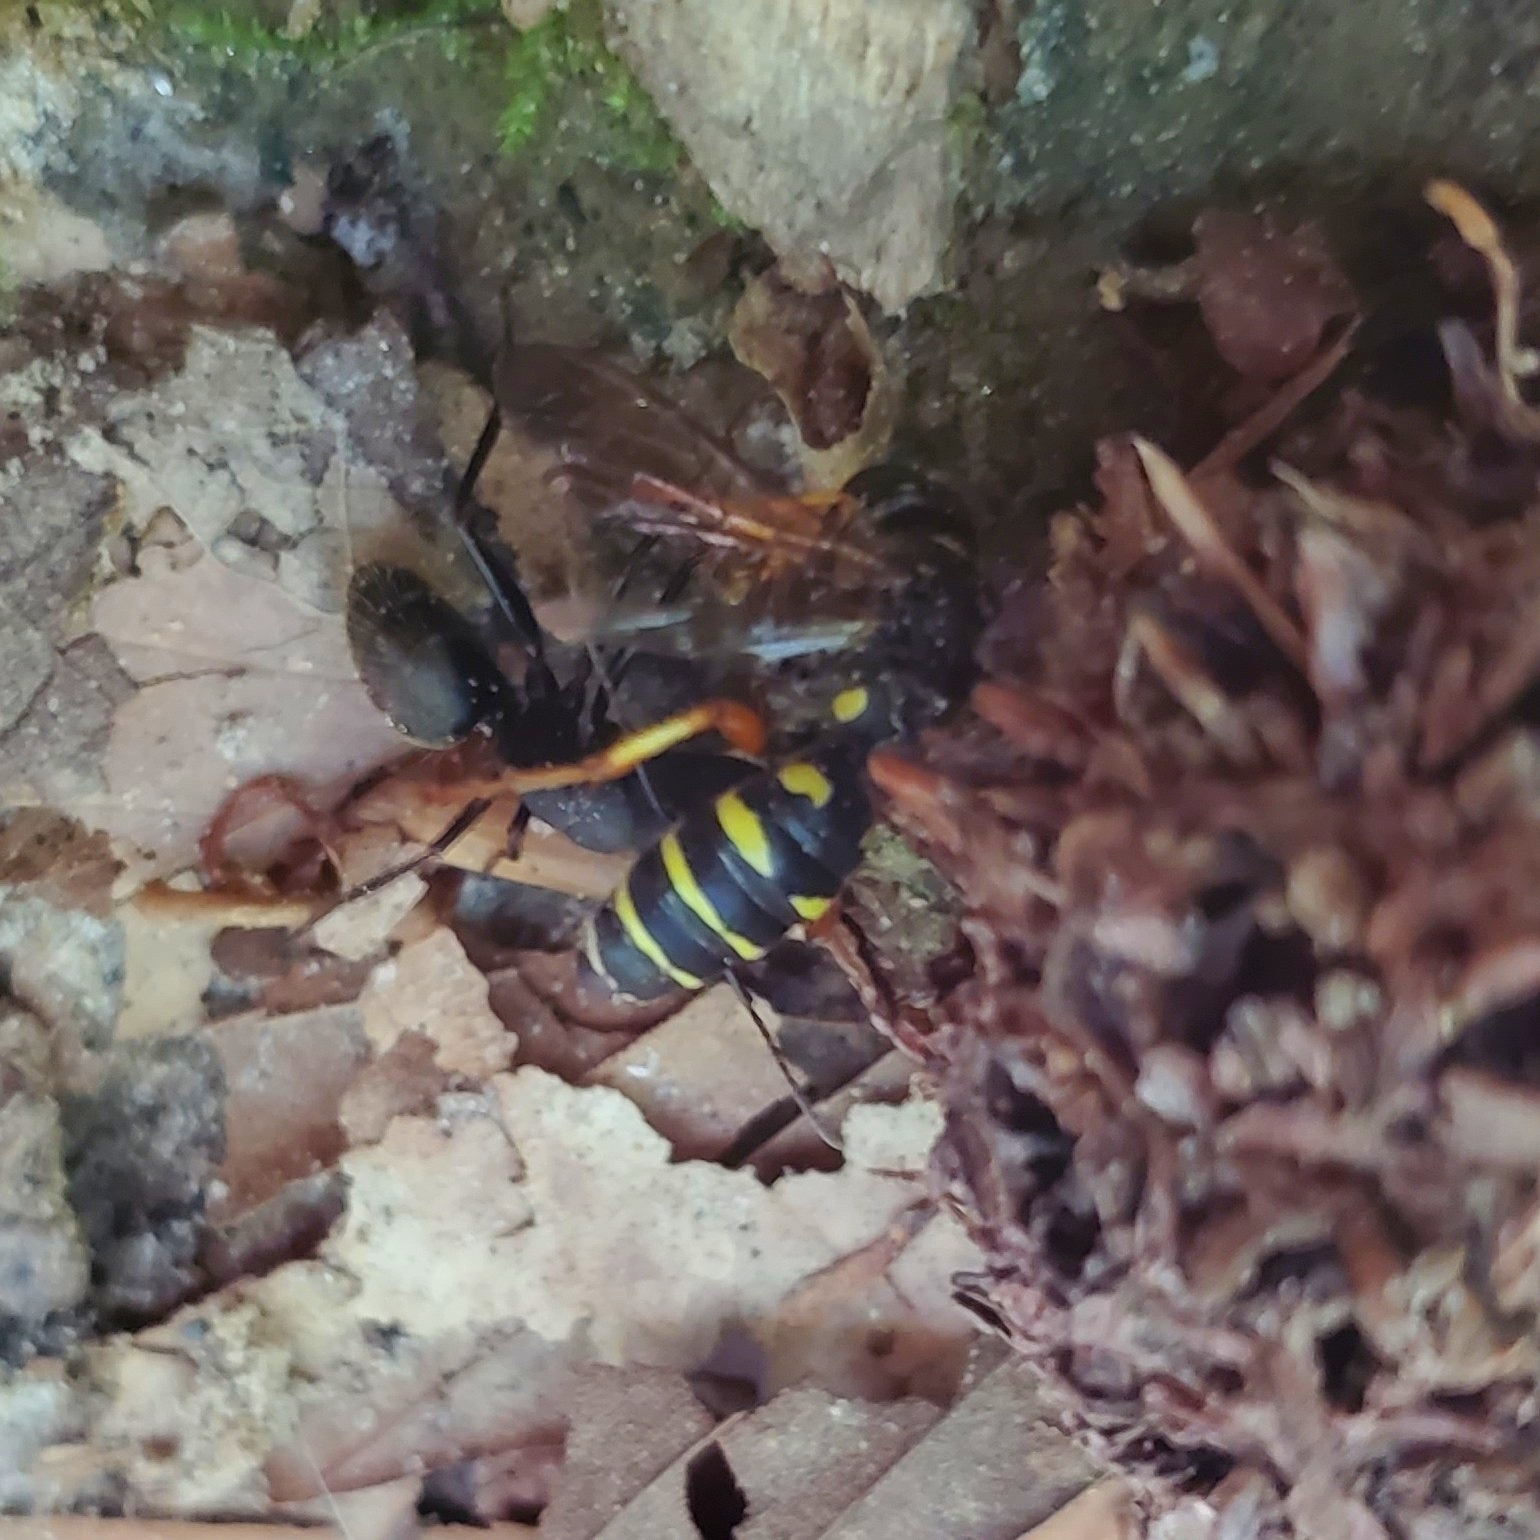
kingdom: Animalia
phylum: Arthropoda
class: Insecta
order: Hymenoptera
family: Formicidae
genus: Camponotus
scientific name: Camponotus pennsylvanicus
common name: Black carpenter ant
